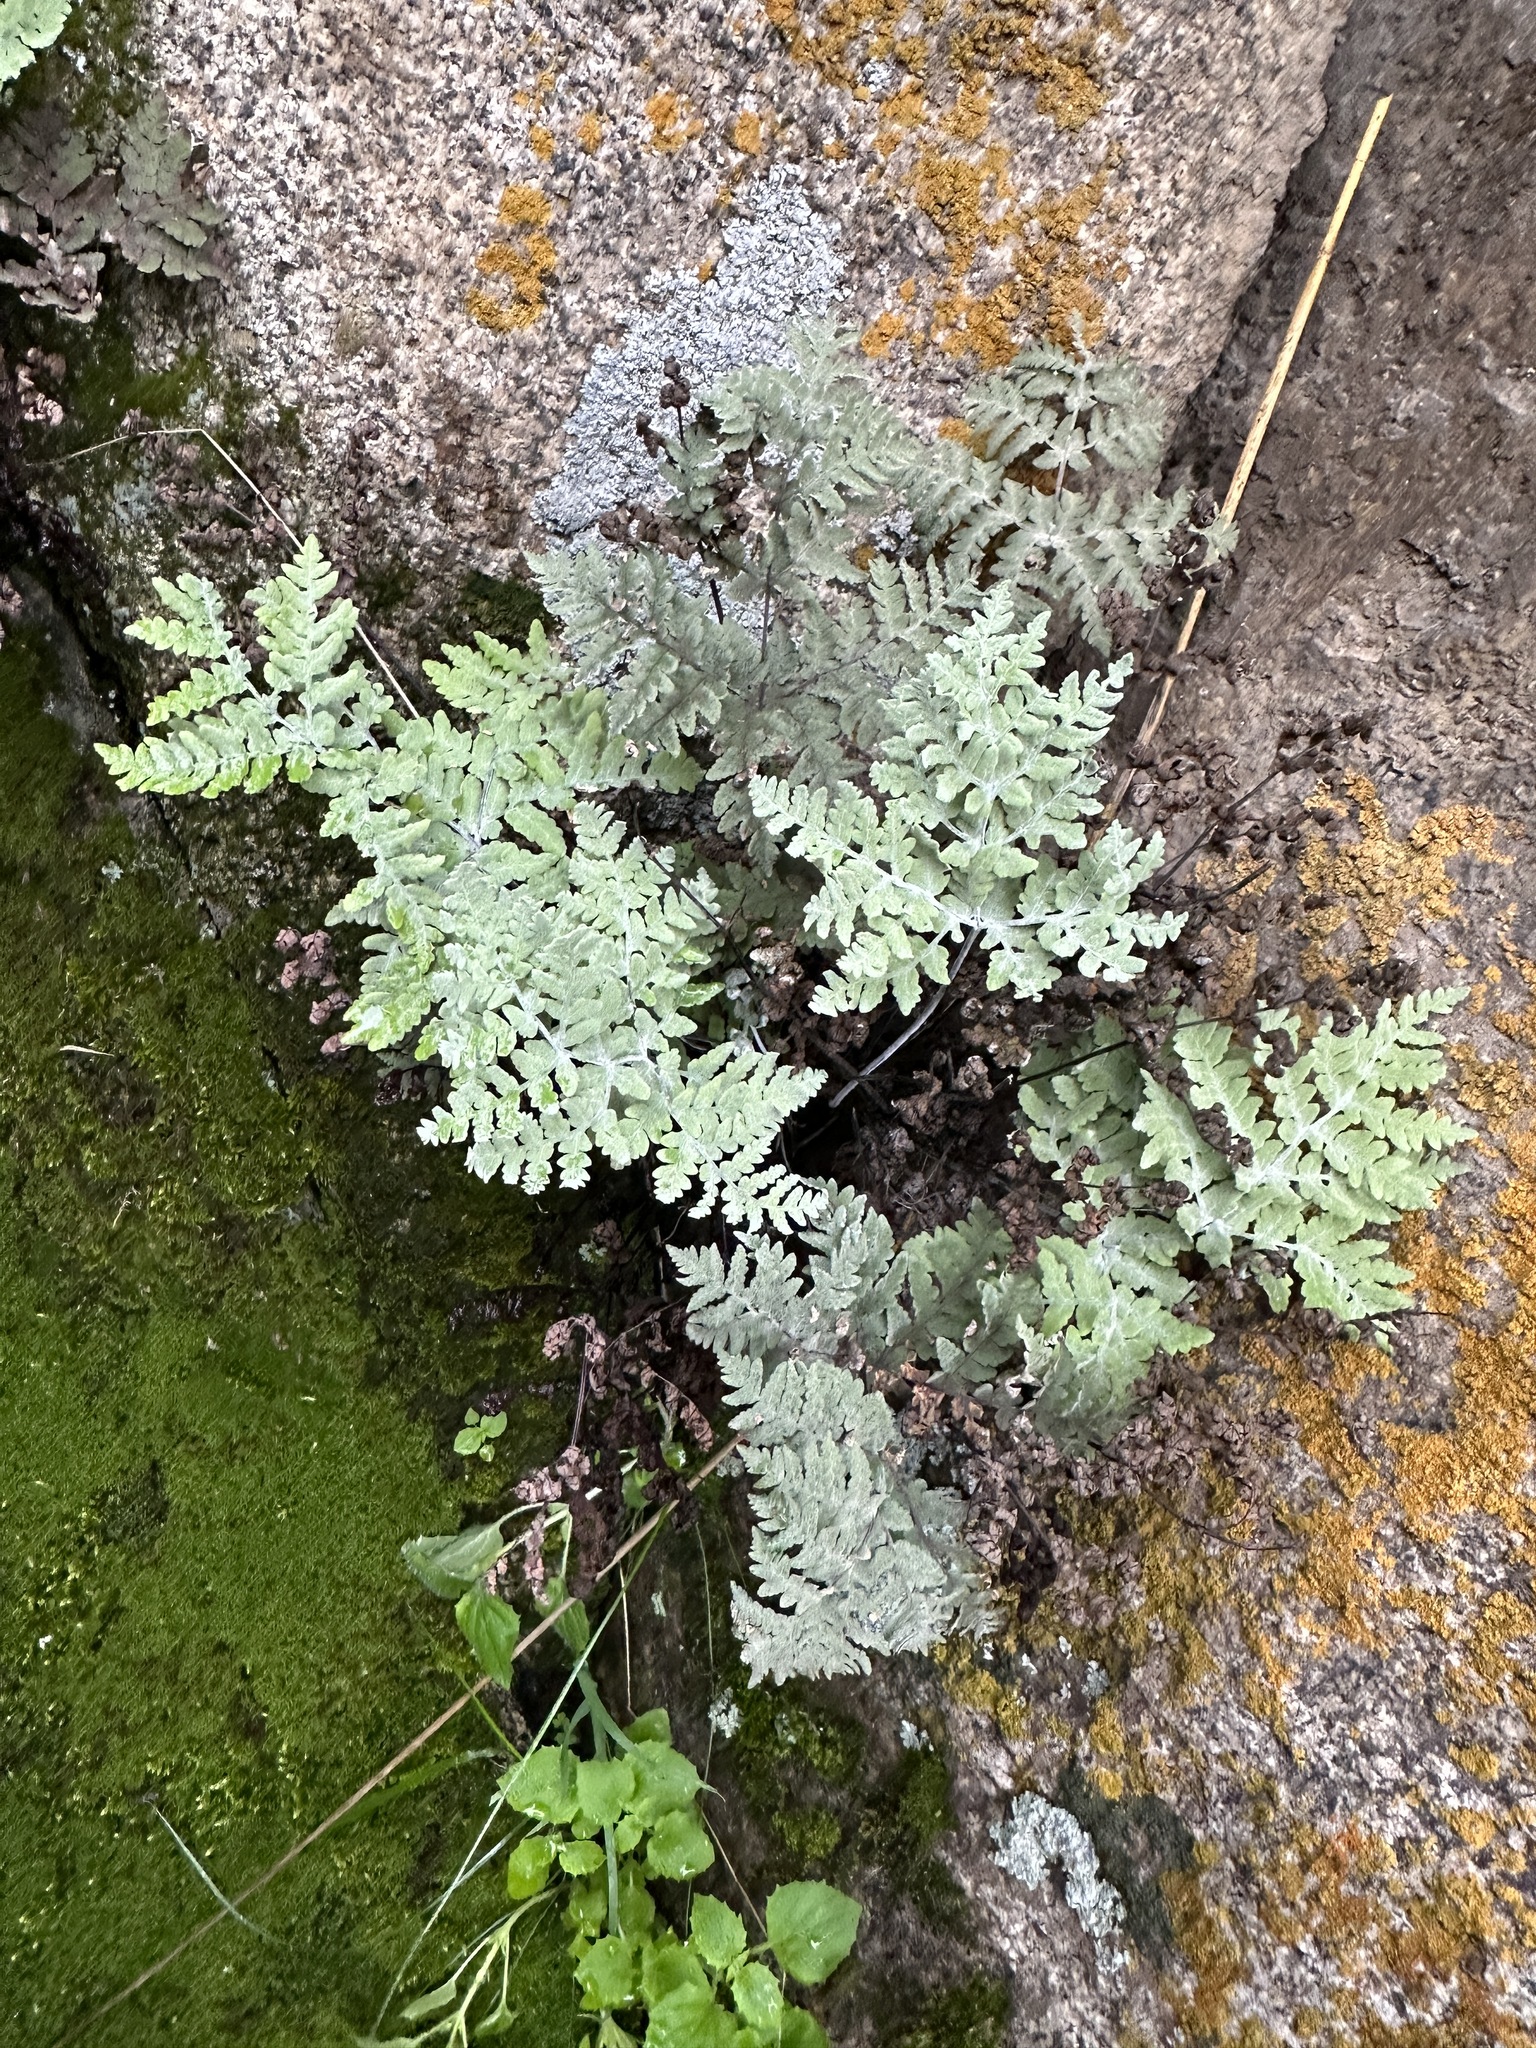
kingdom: Plantae
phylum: Tracheophyta
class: Polypodiopsida
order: Polypodiales
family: Pteridaceae
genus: Pentagramma
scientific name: Pentagramma pallida
